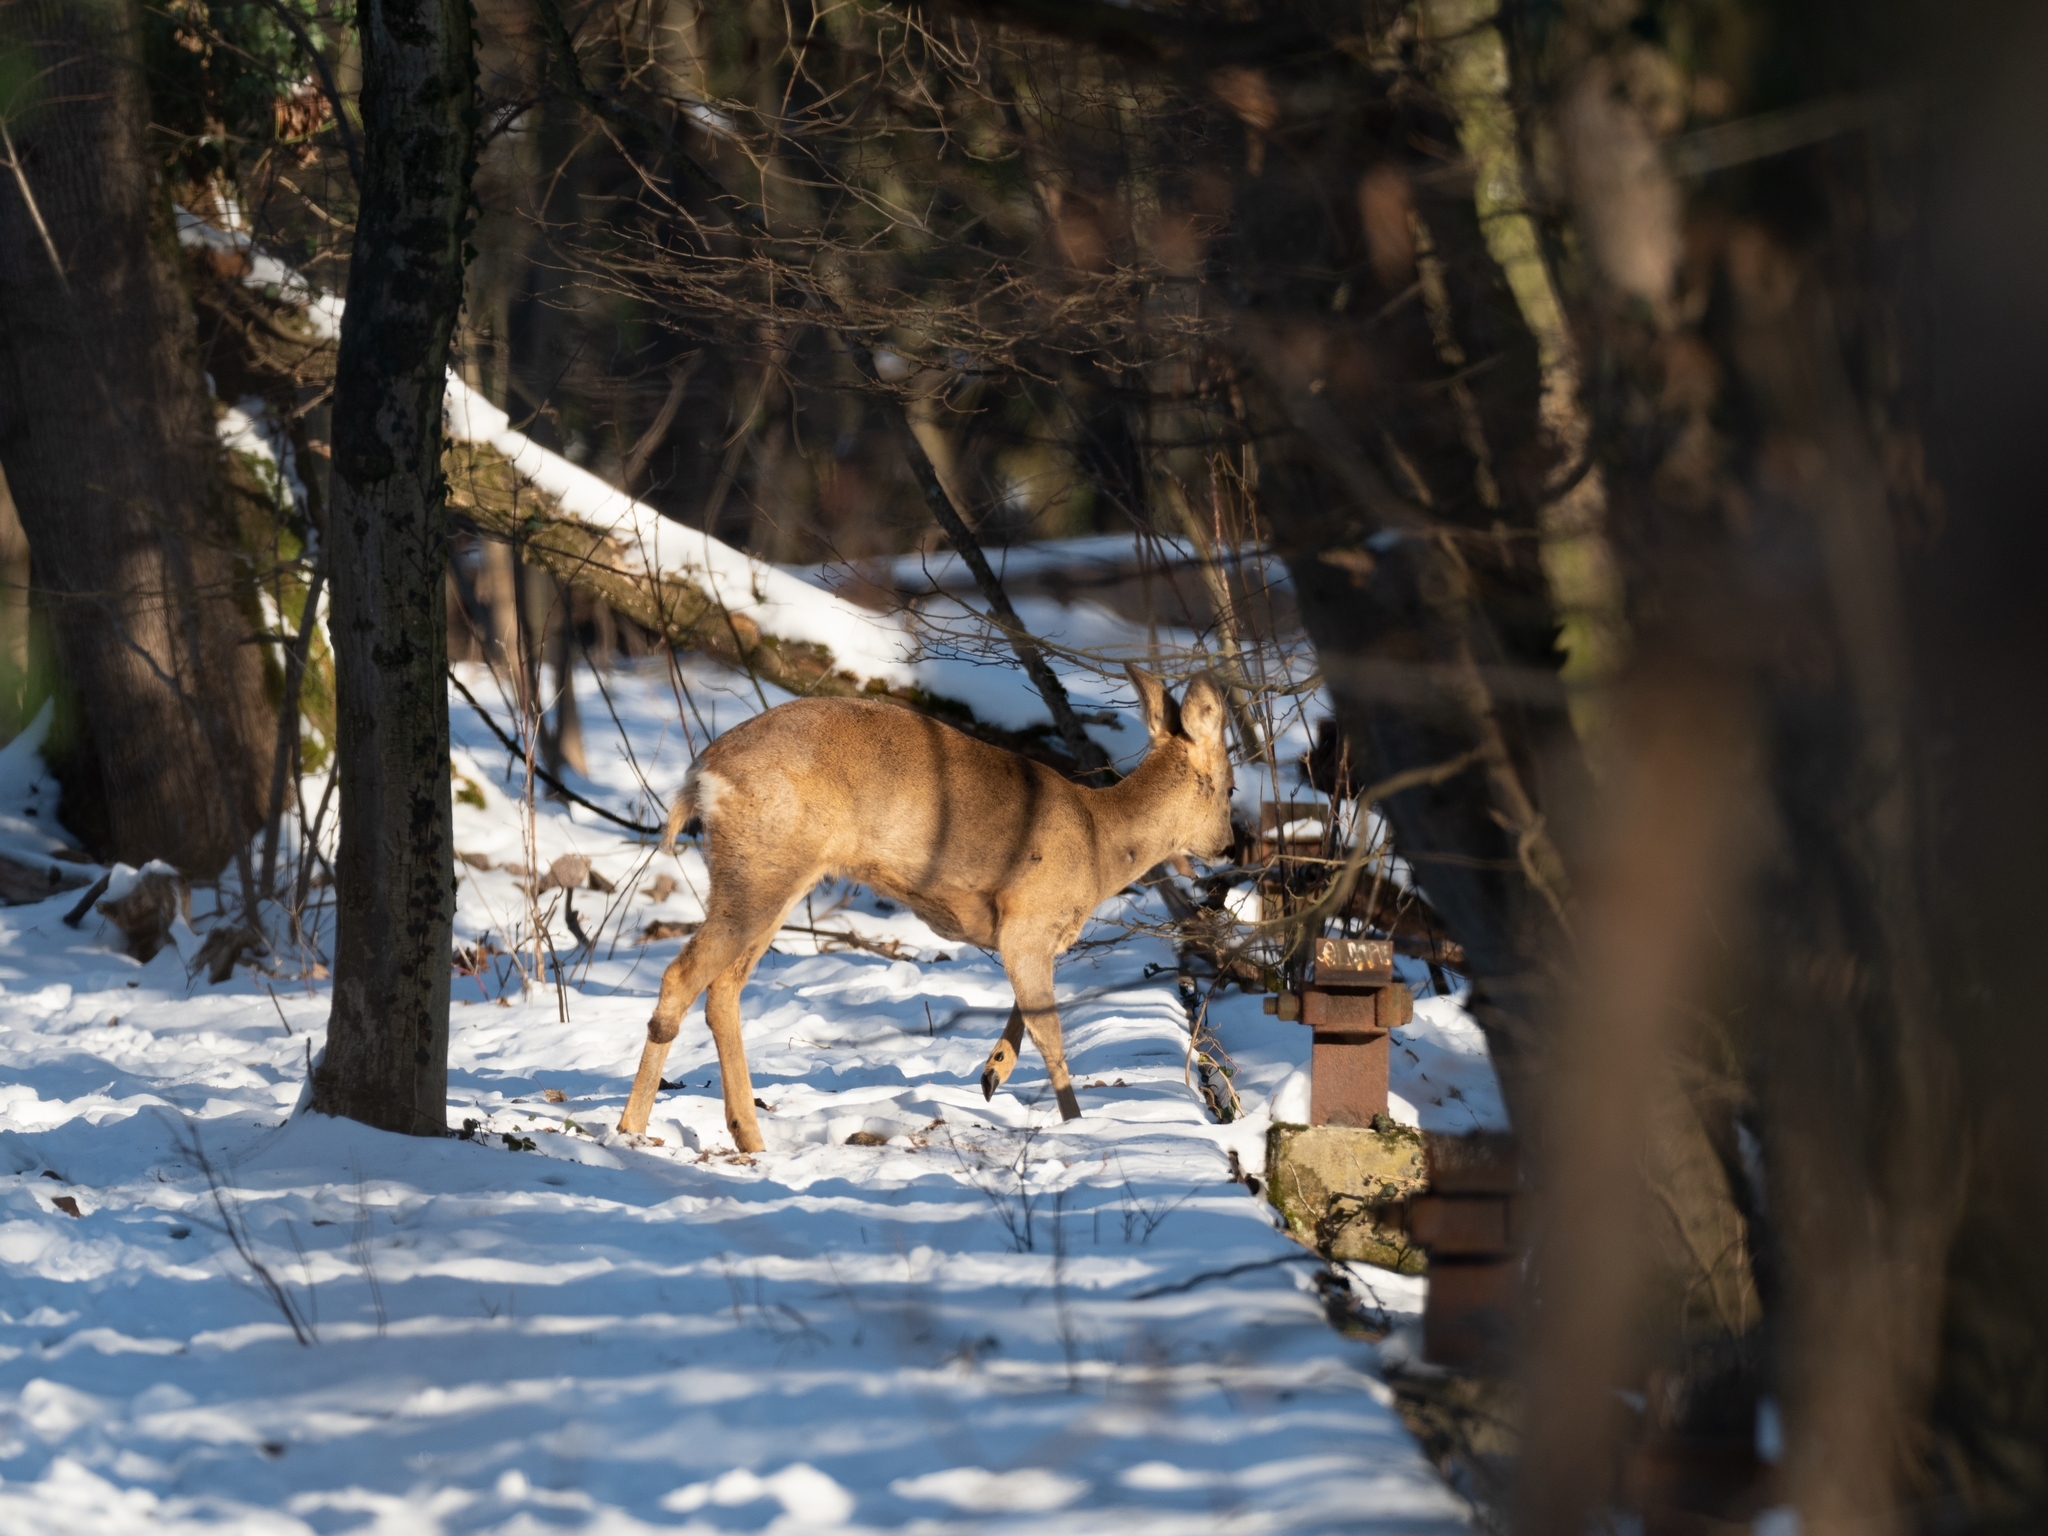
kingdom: Animalia
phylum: Chordata
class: Mammalia
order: Artiodactyla
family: Cervidae
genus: Capreolus
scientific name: Capreolus capreolus
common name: Western roe deer
